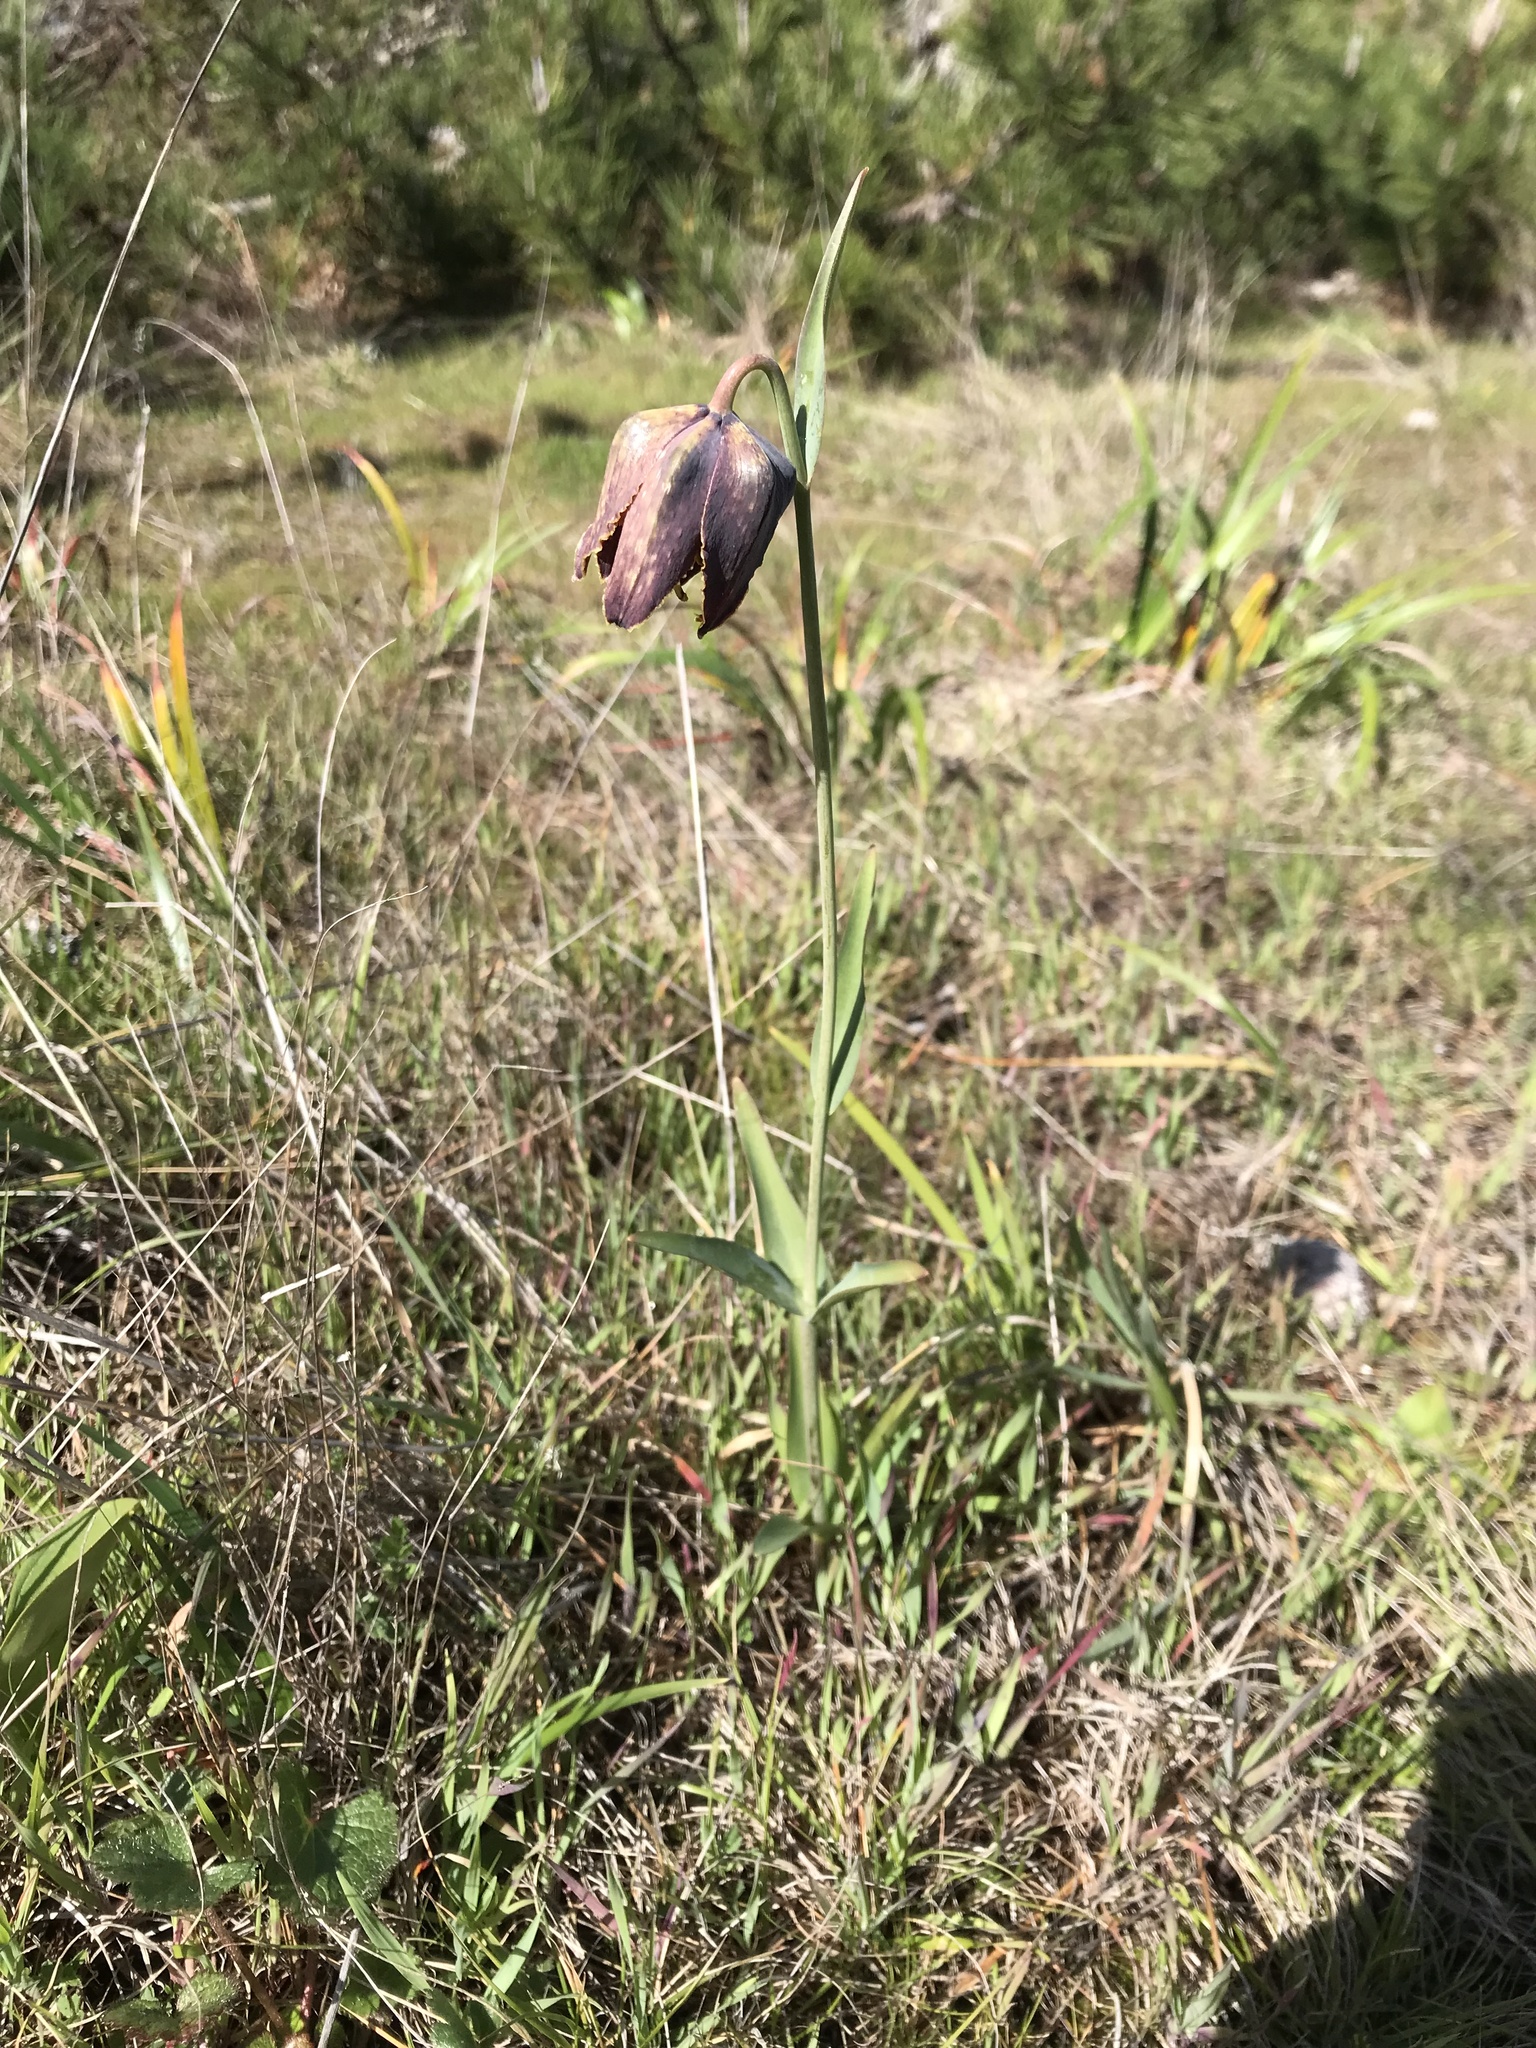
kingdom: Plantae
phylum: Tracheophyta
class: Liliopsida
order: Liliales
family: Liliaceae
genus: Fritillaria
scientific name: Fritillaria affinis
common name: Ojai fritillary
